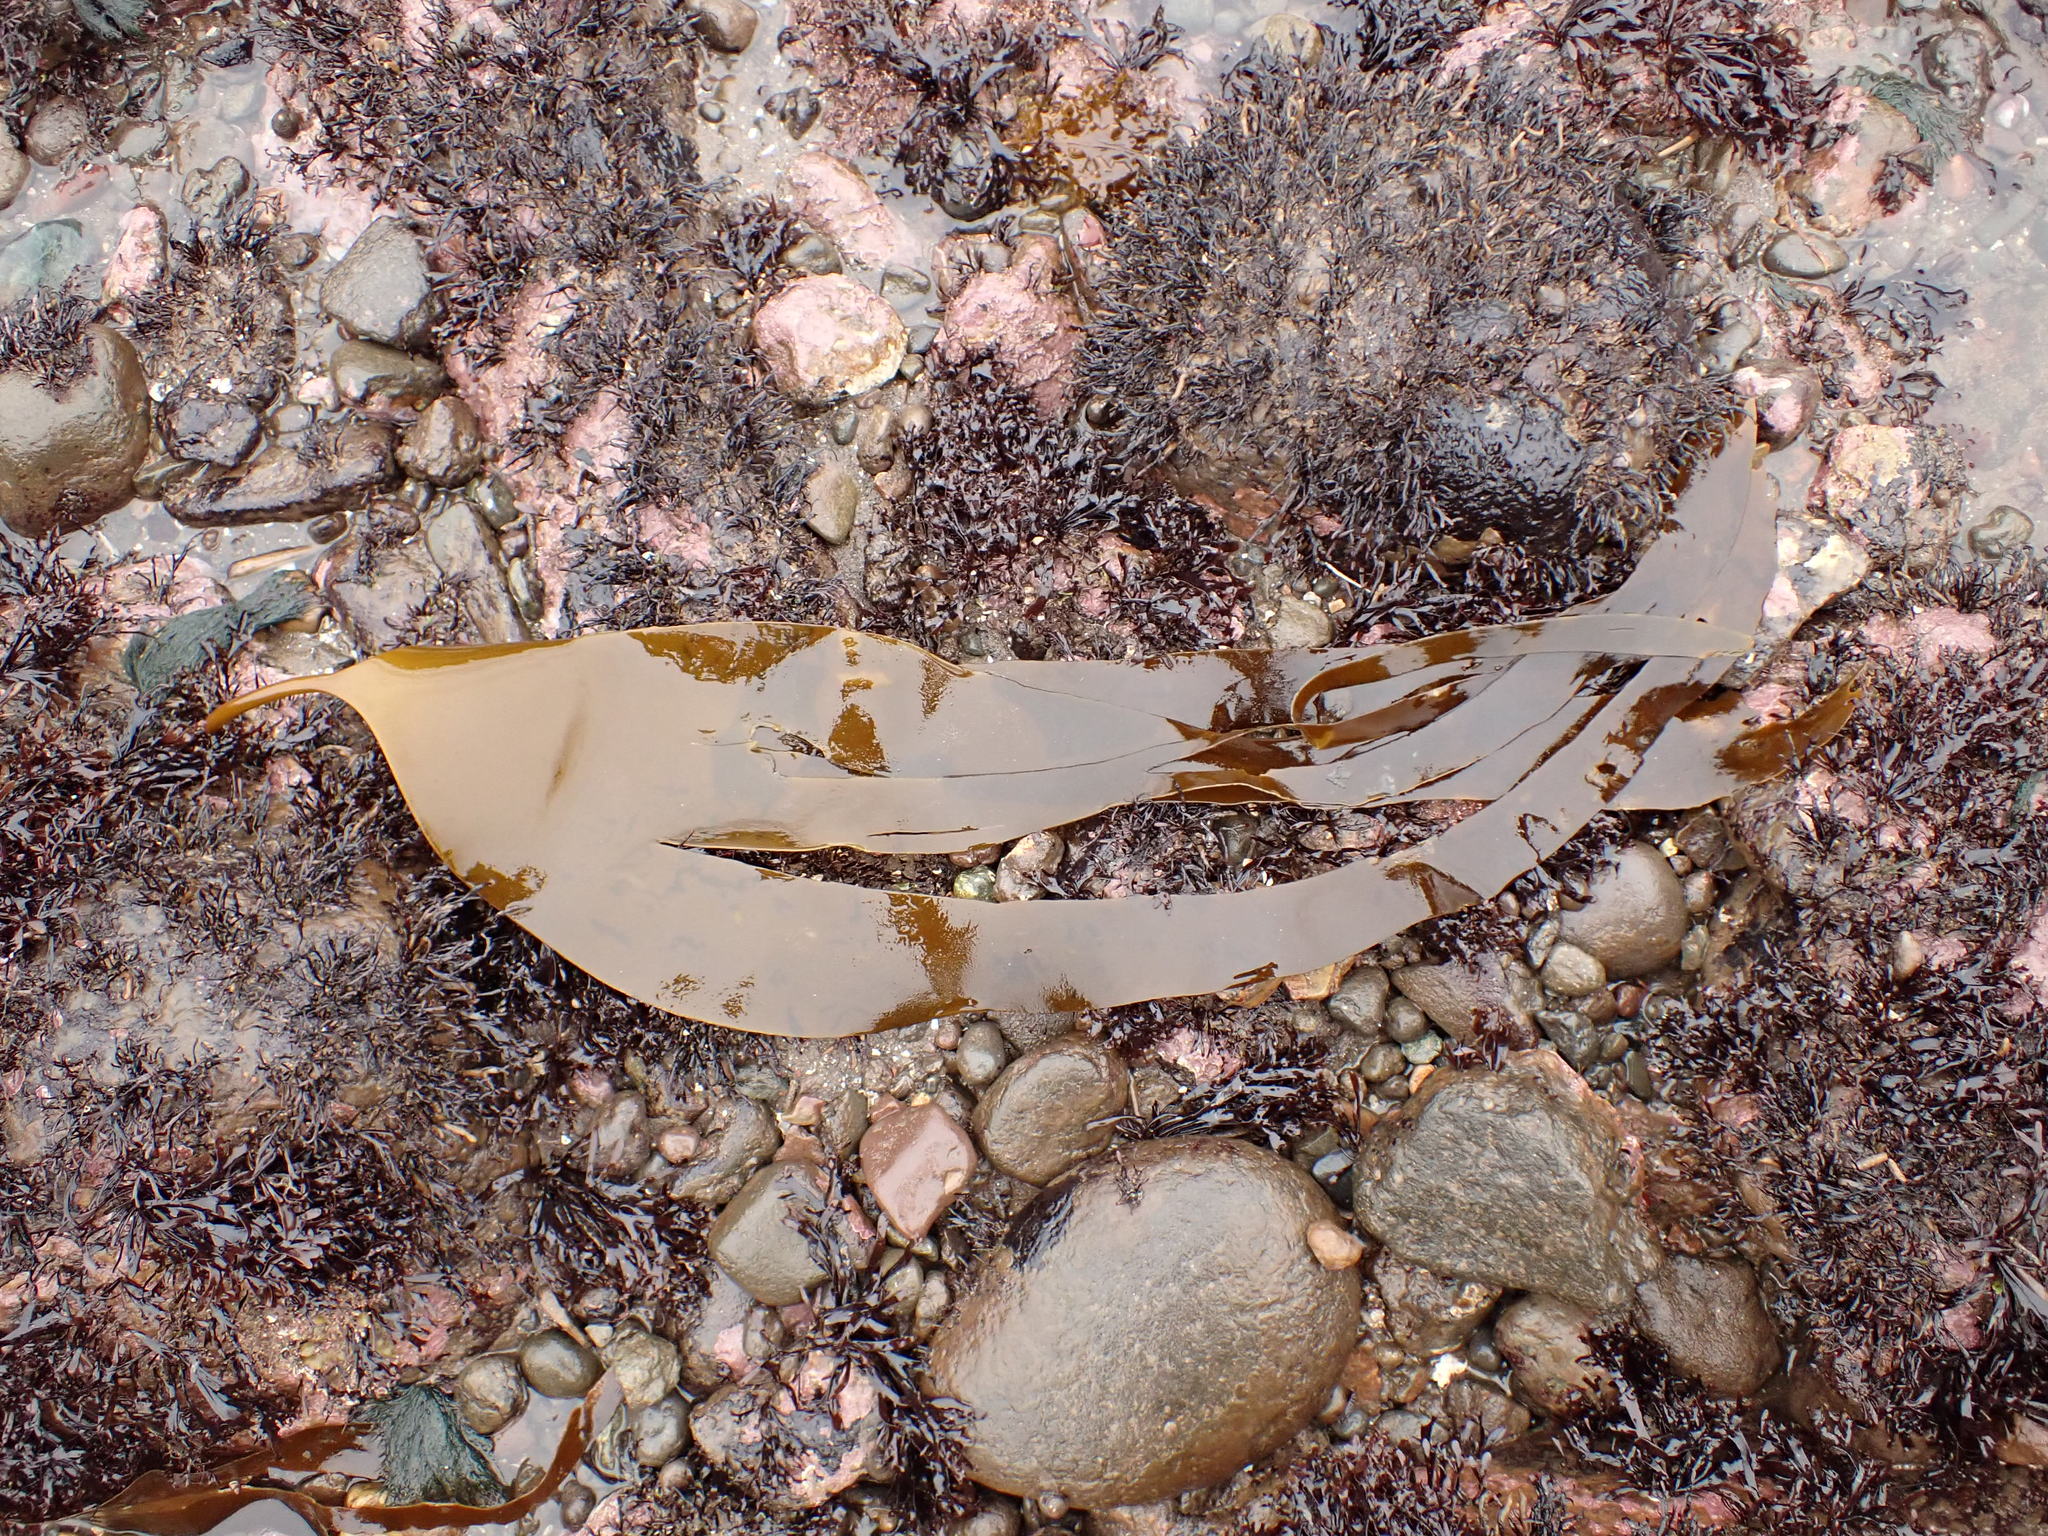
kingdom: Chromista
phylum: Ochrophyta
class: Phaeophyceae
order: Laminariales
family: Laminariaceae
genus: Laminaria
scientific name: Laminaria digitata
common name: Oarweed
